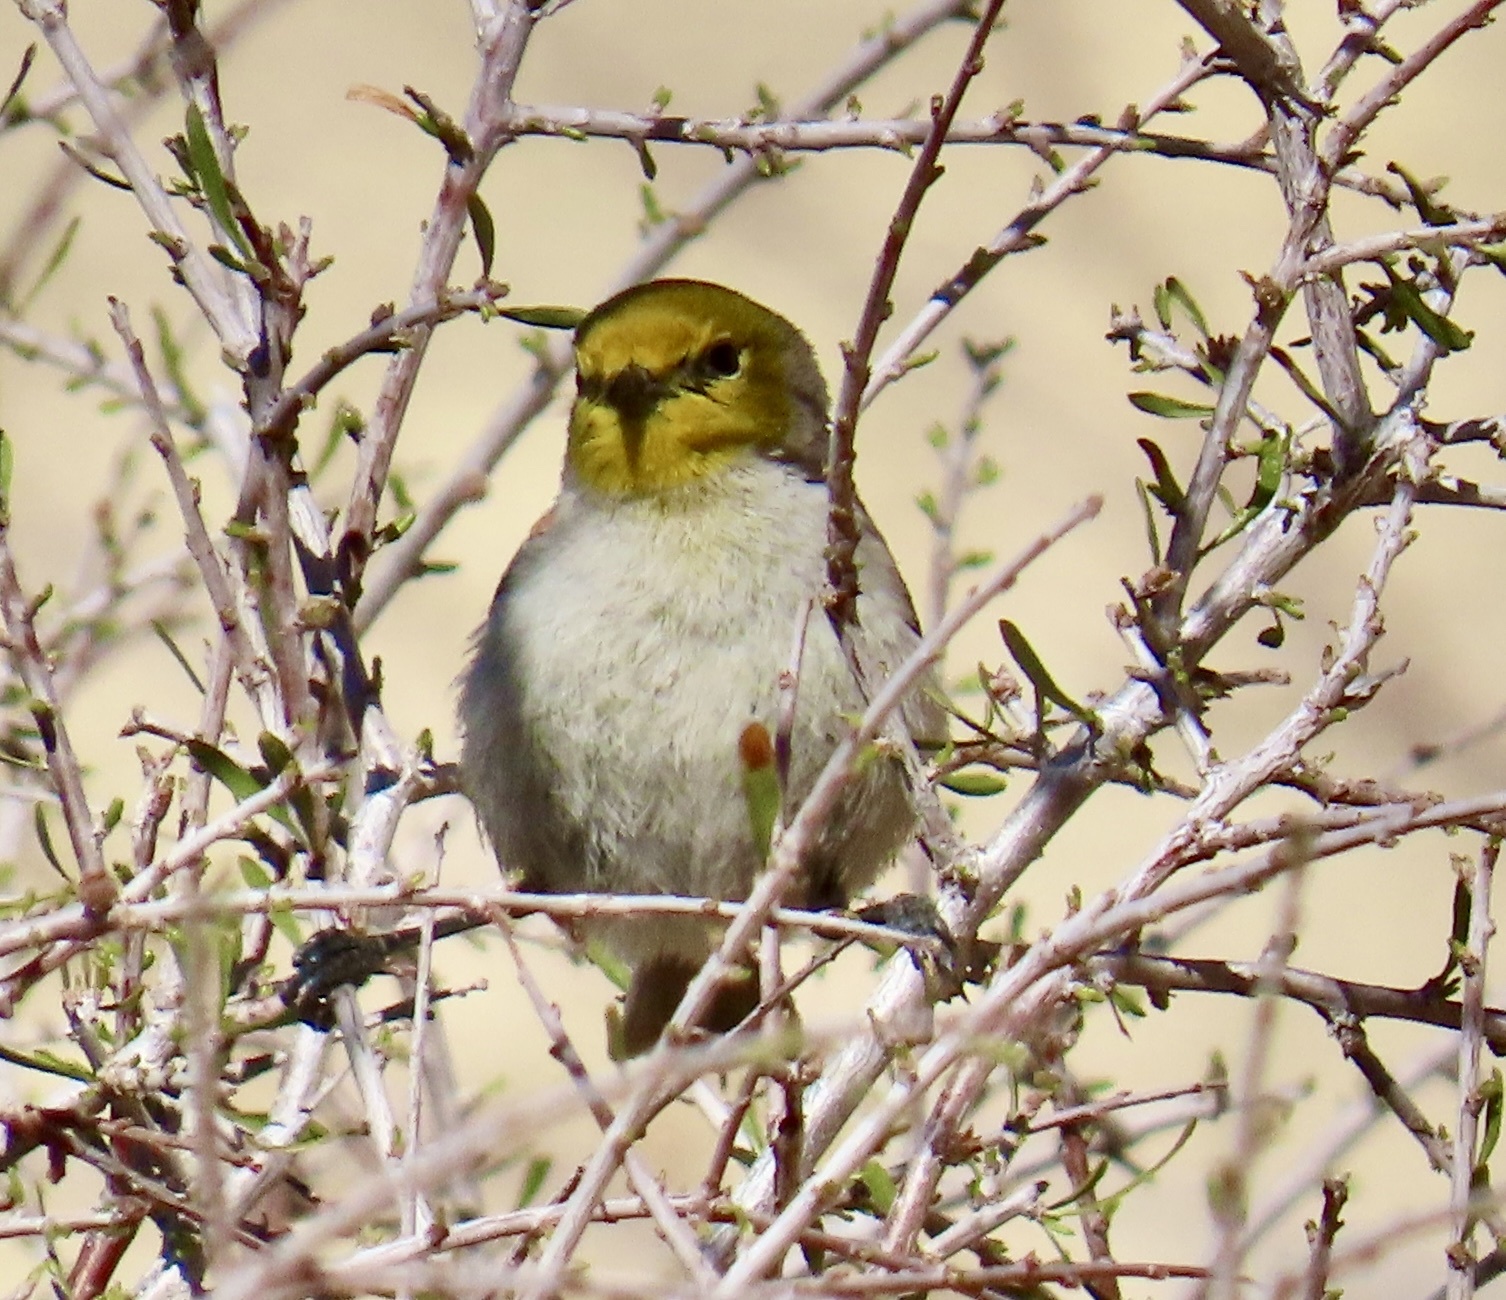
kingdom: Animalia
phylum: Chordata
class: Aves
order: Passeriformes
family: Remizidae
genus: Auriparus
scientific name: Auriparus flaviceps
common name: Verdin
